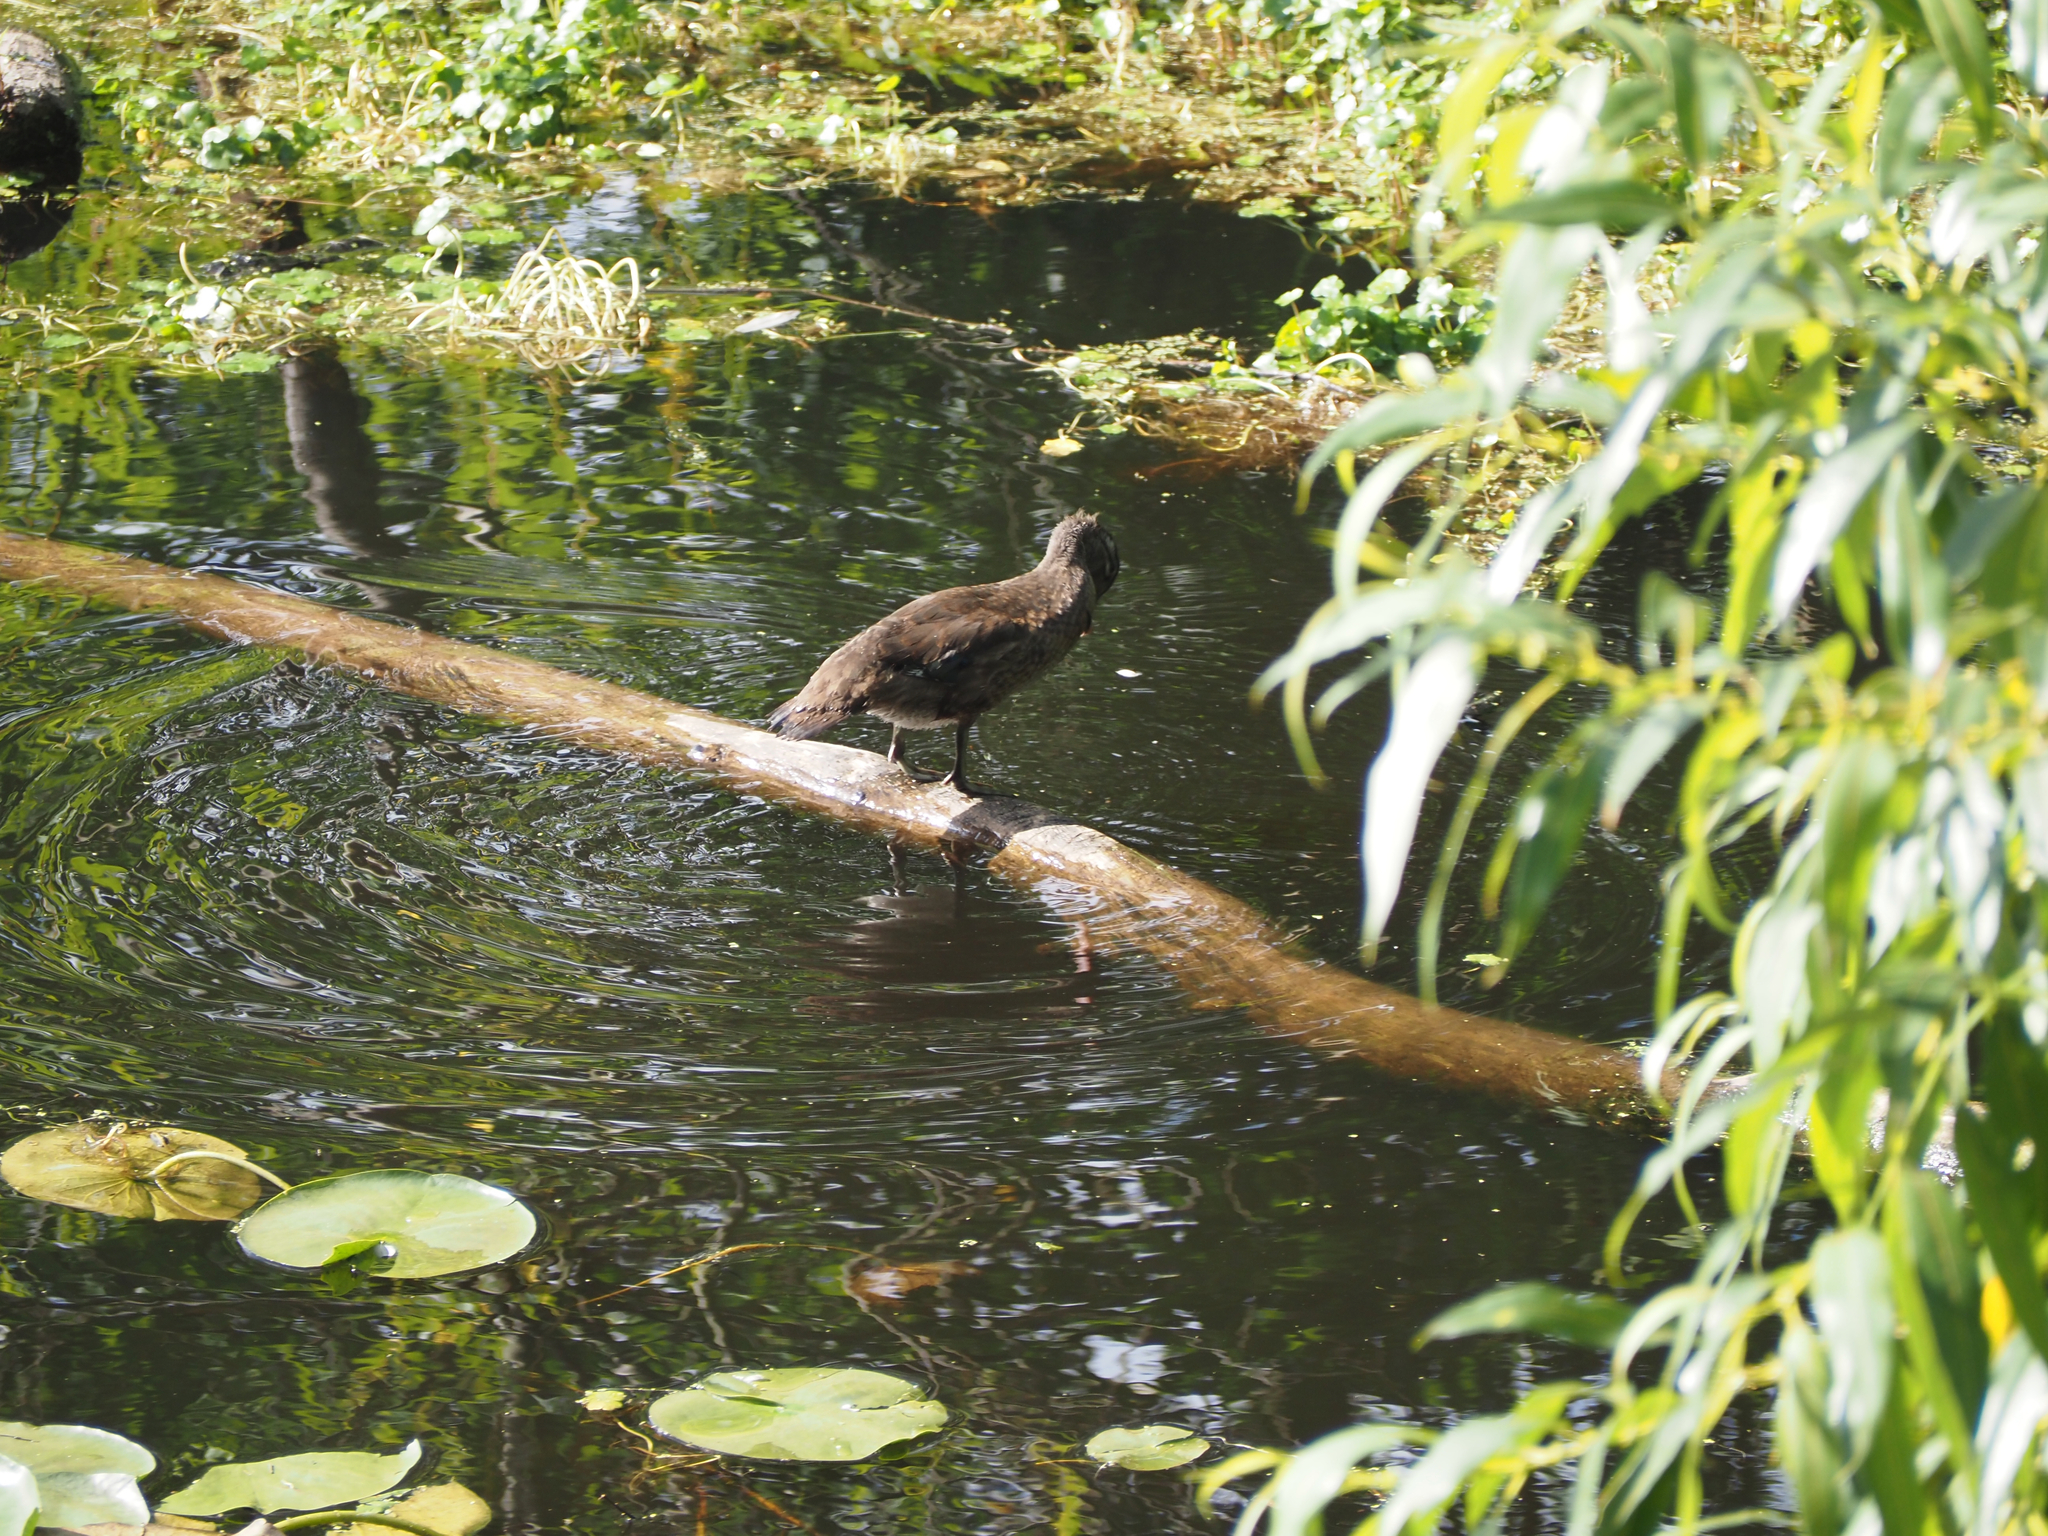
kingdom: Animalia
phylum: Chordata
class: Aves
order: Anseriformes
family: Anatidae
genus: Aix
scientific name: Aix sponsa
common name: Wood duck
